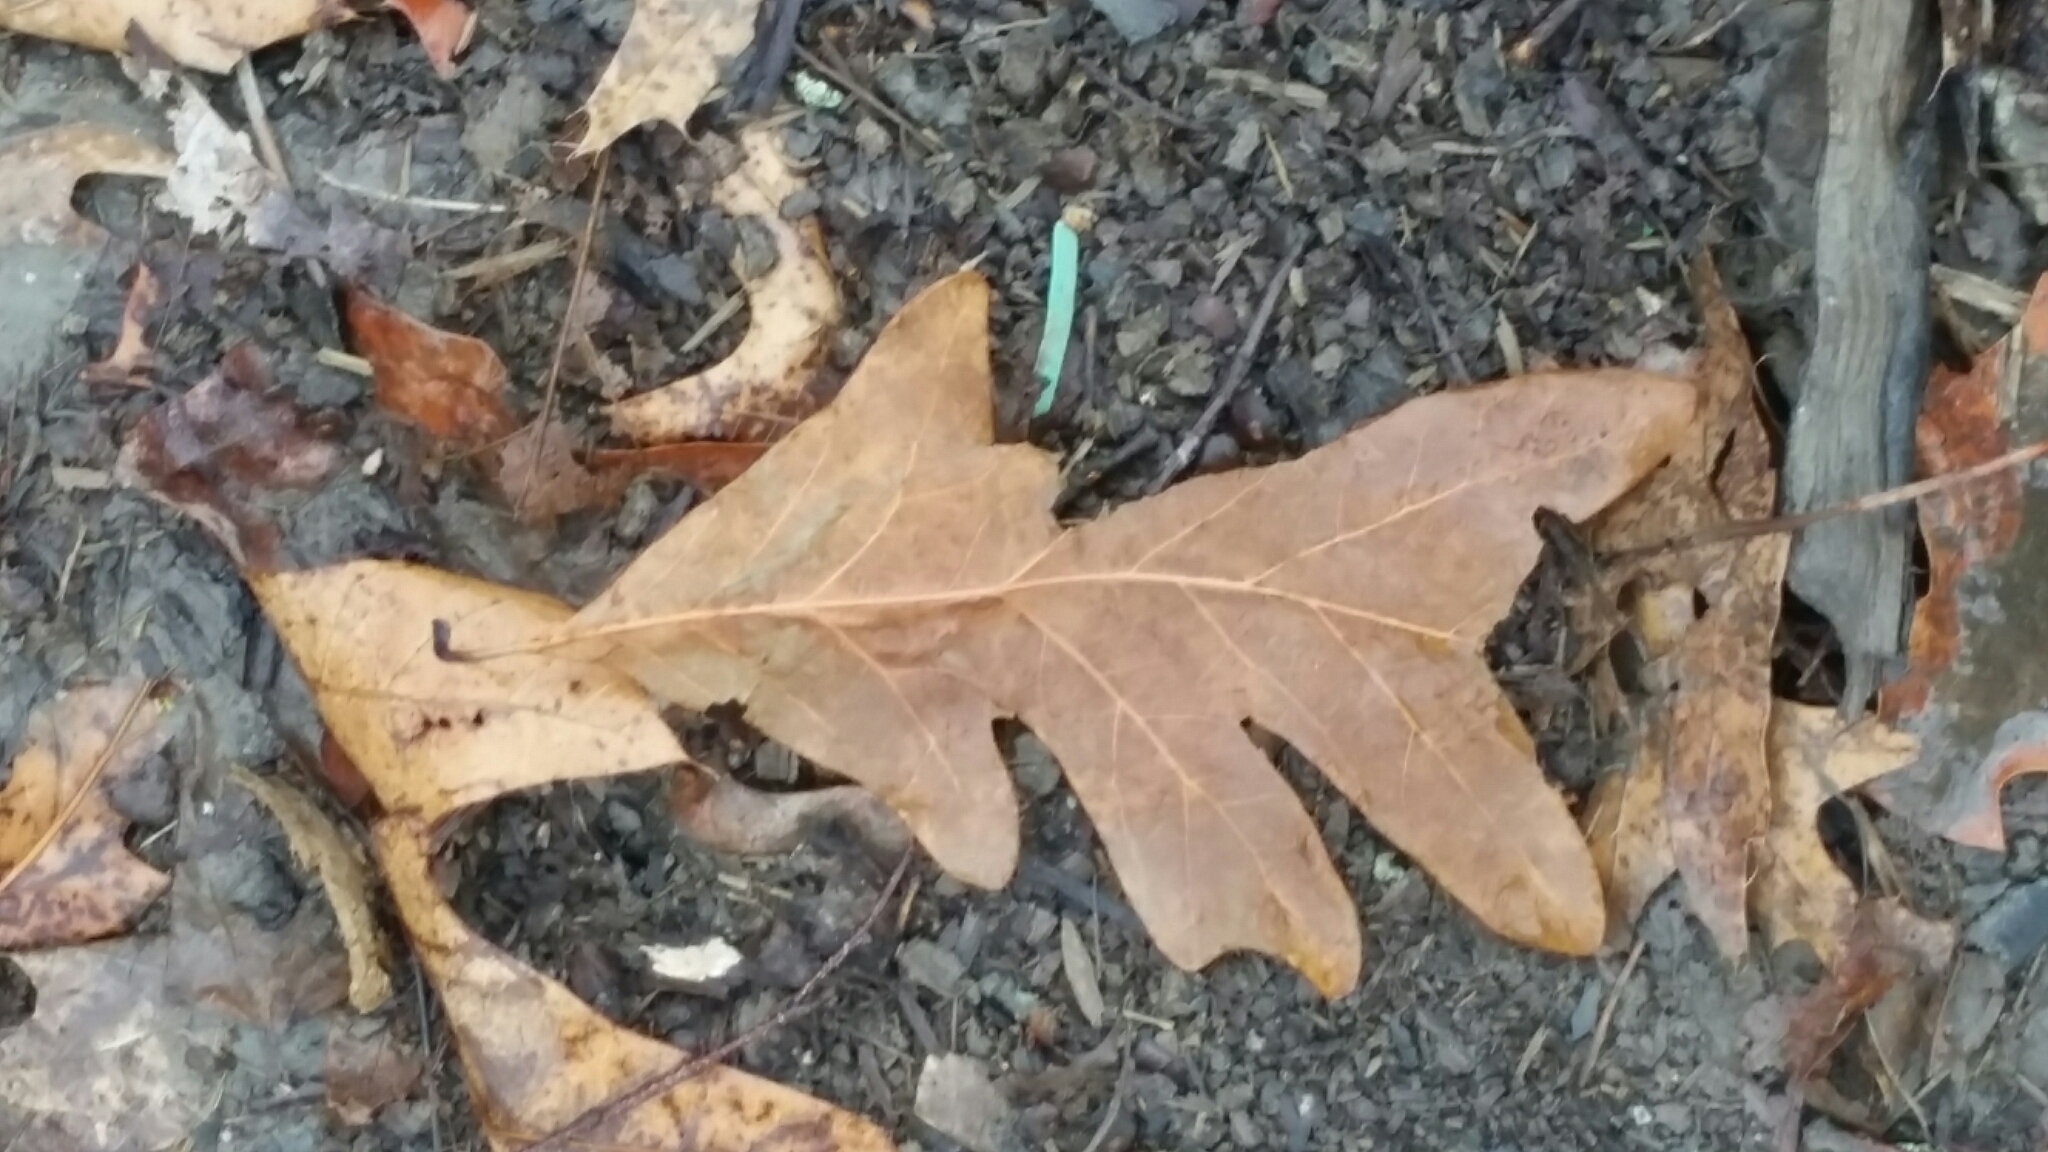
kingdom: Plantae
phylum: Tracheophyta
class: Magnoliopsida
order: Fagales
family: Fagaceae
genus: Quercus
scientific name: Quercus alba
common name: White oak
